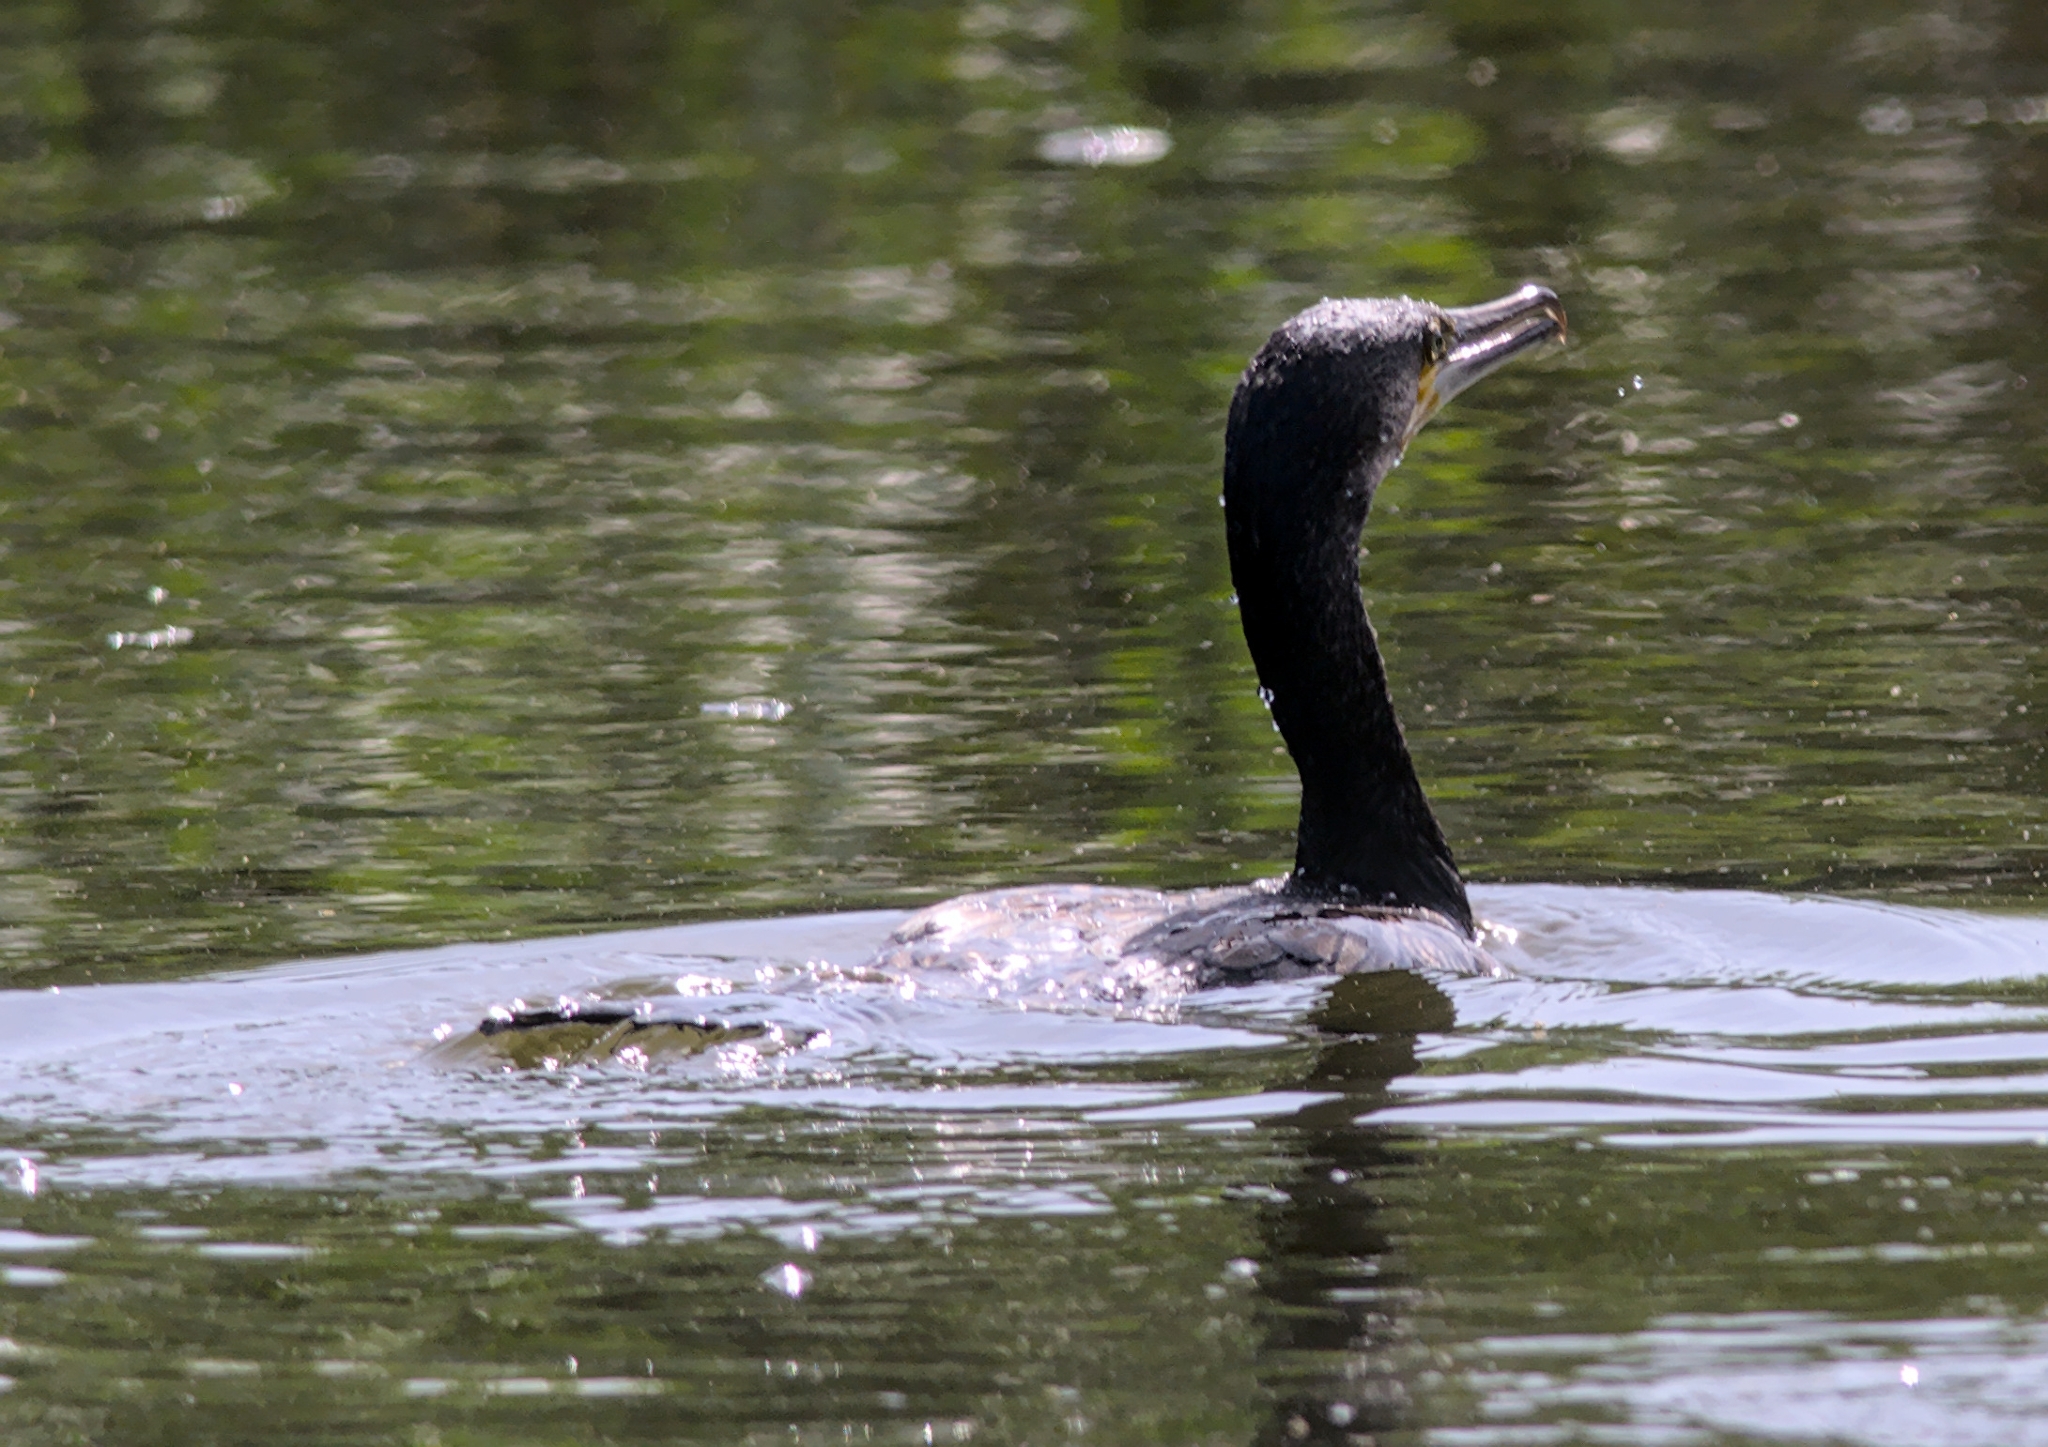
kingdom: Animalia
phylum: Chordata
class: Aves
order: Suliformes
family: Phalacrocoracidae
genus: Phalacrocorax
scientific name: Phalacrocorax carbo
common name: Great cormorant
